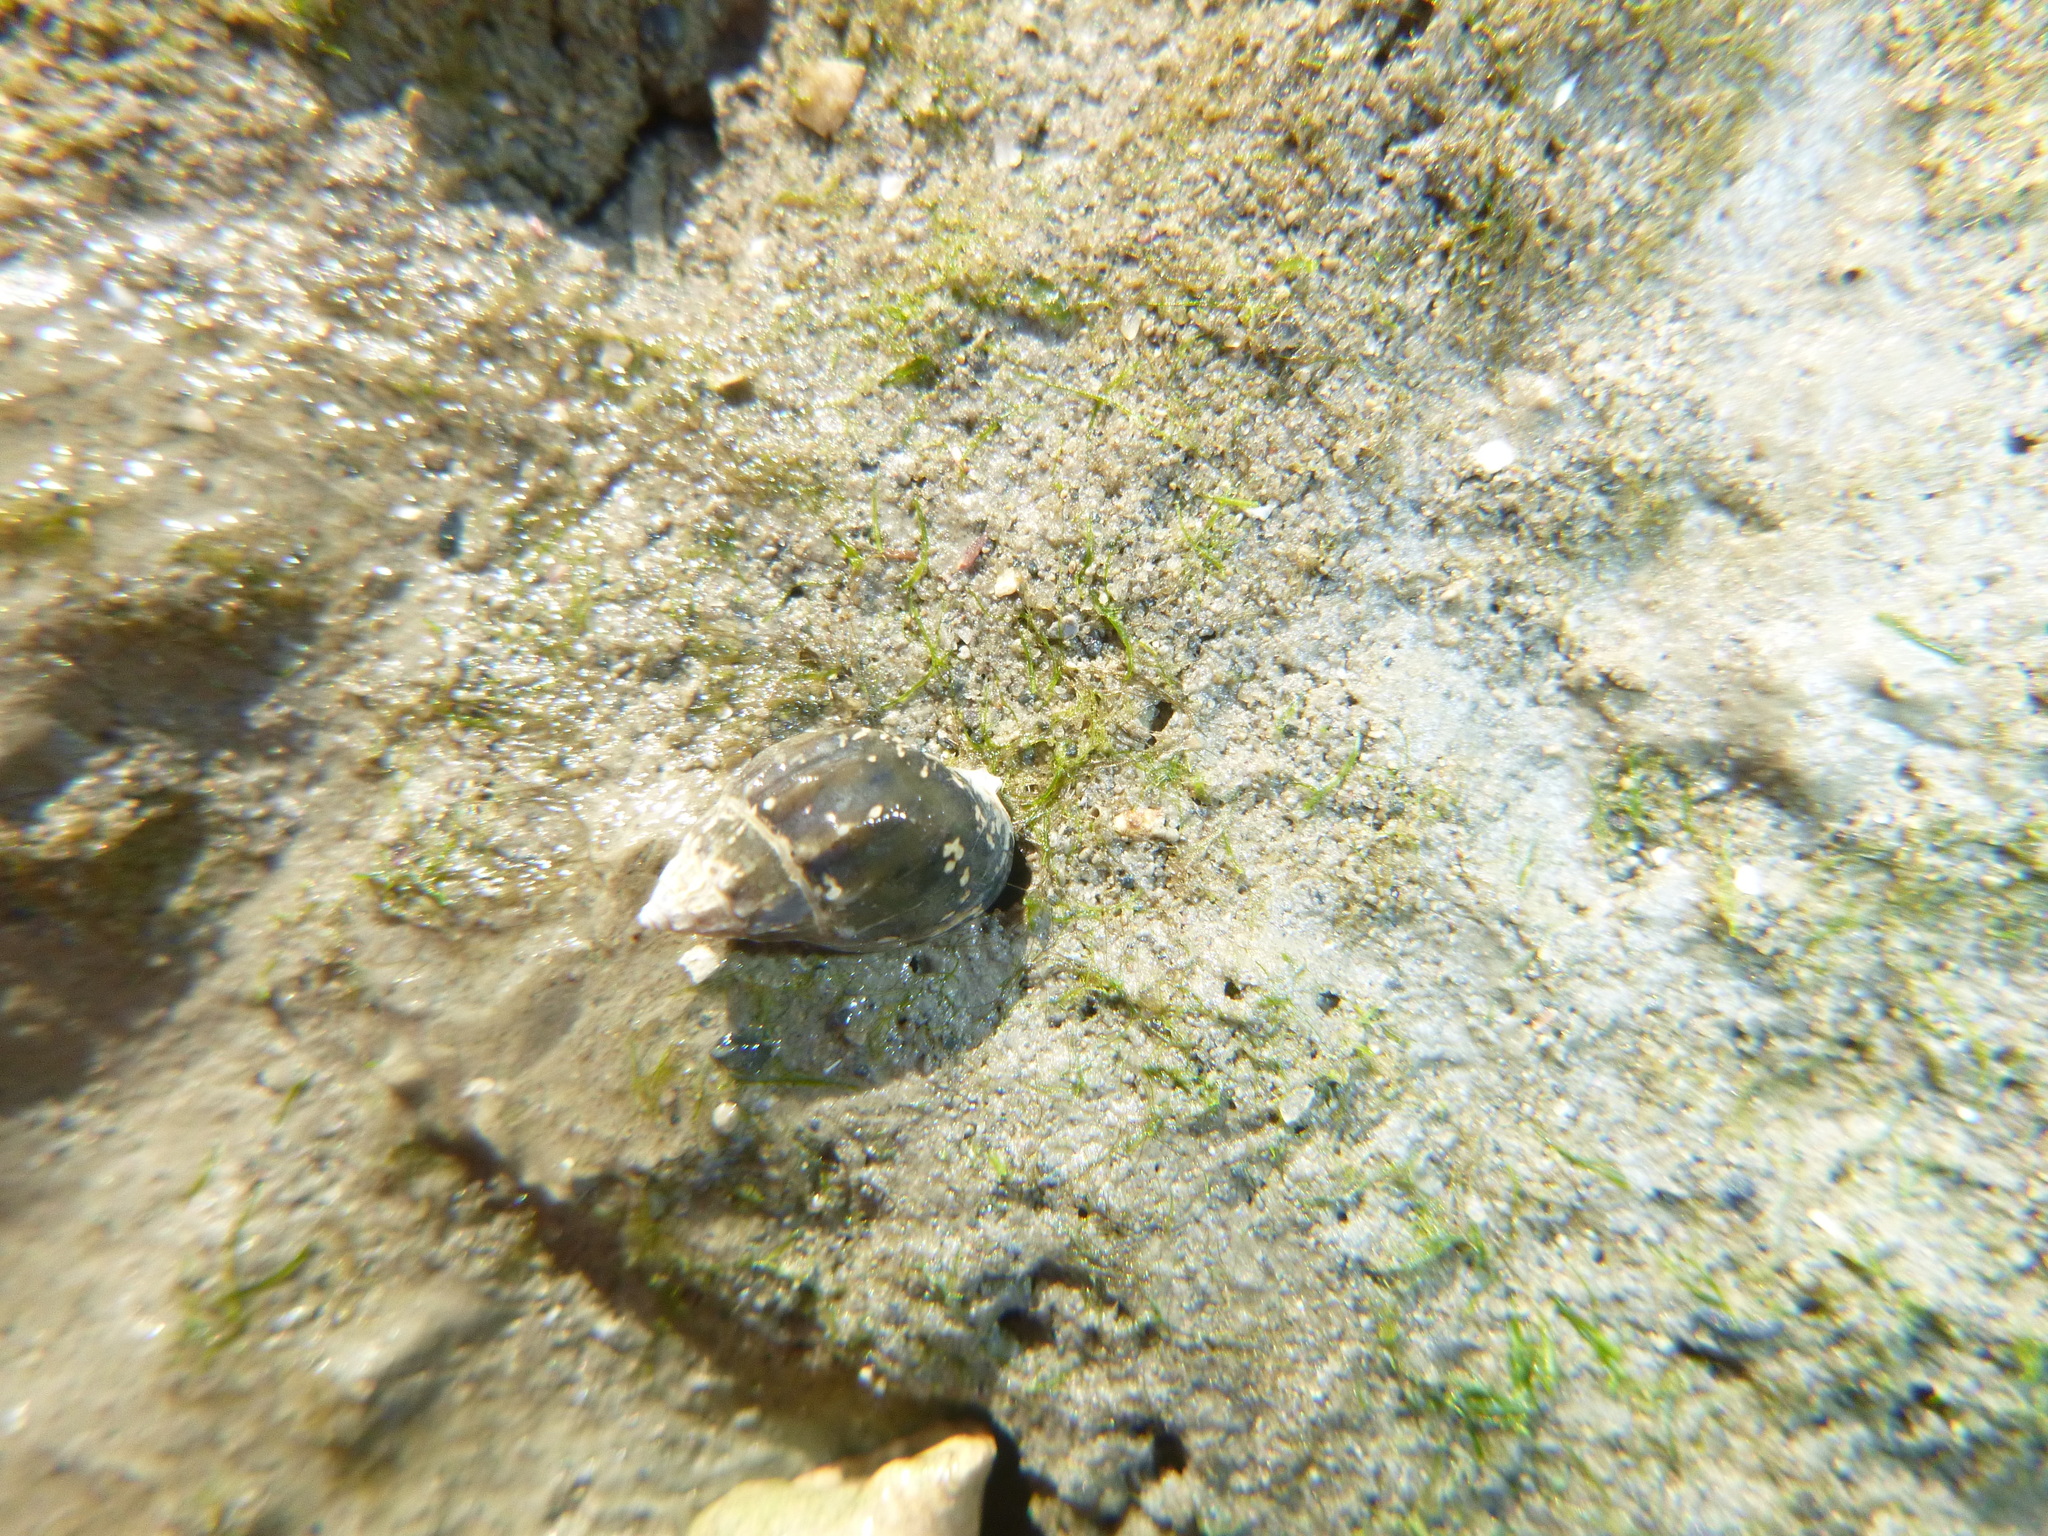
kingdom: Animalia
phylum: Mollusca
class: Gastropoda
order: Neogastropoda
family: Nassariidae
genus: Tritia
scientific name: Tritia burchardi
